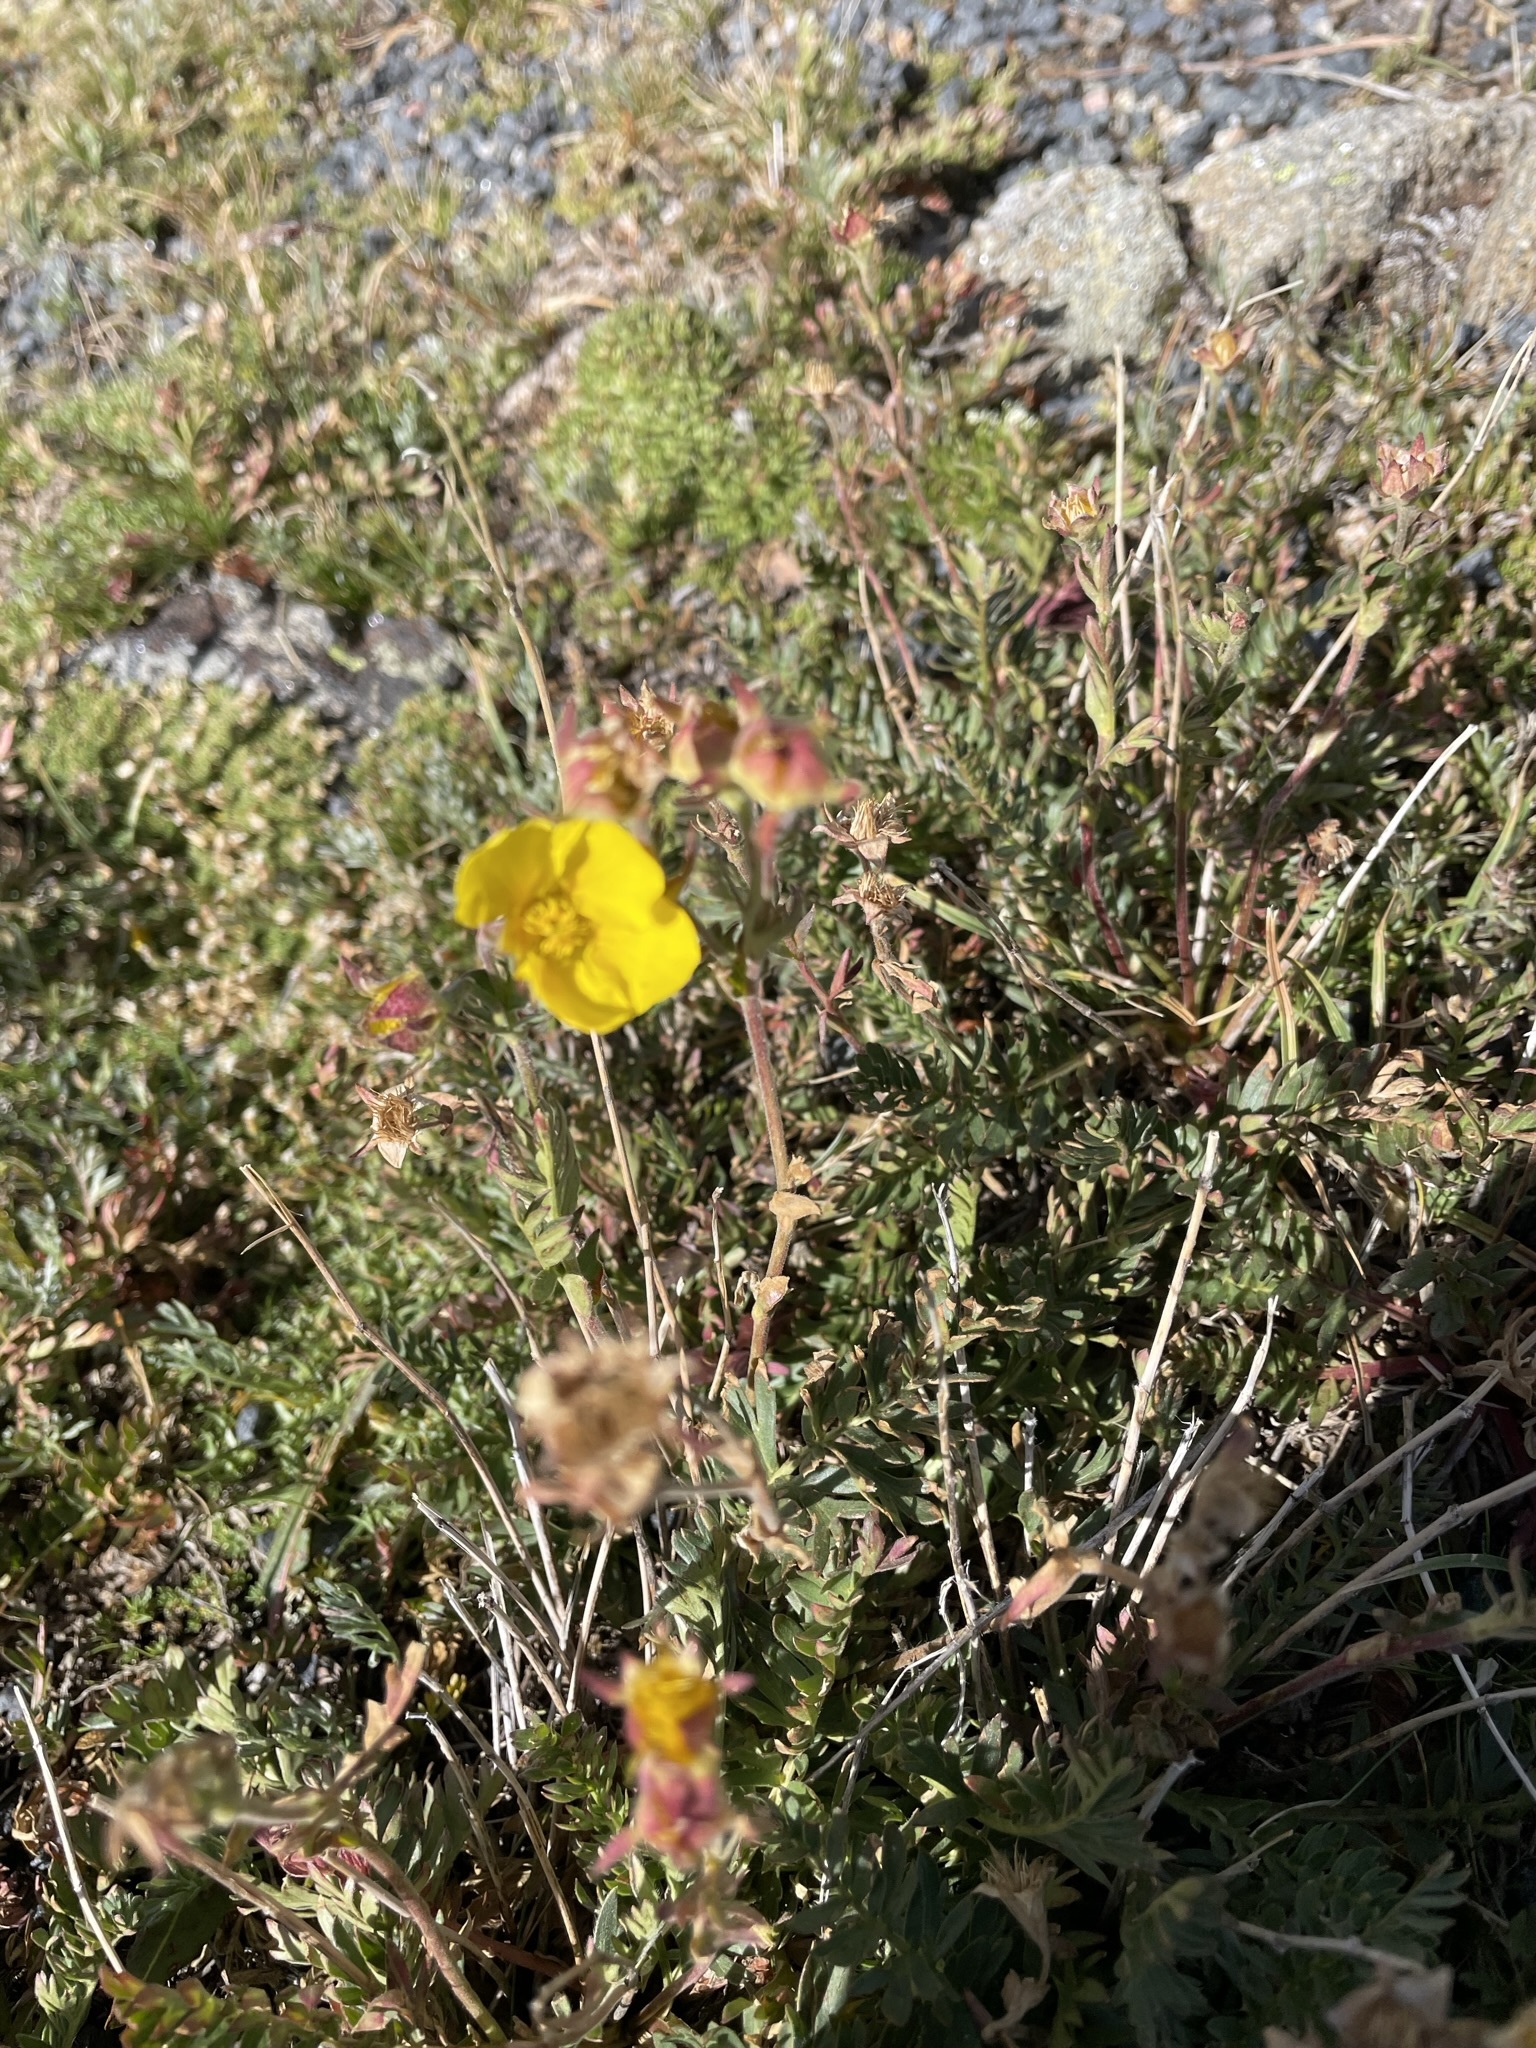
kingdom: Plantae
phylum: Tracheophyta
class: Magnoliopsida
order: Rosales
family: Rosaceae
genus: Geum
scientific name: Geum rossii
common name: Alpine avens
